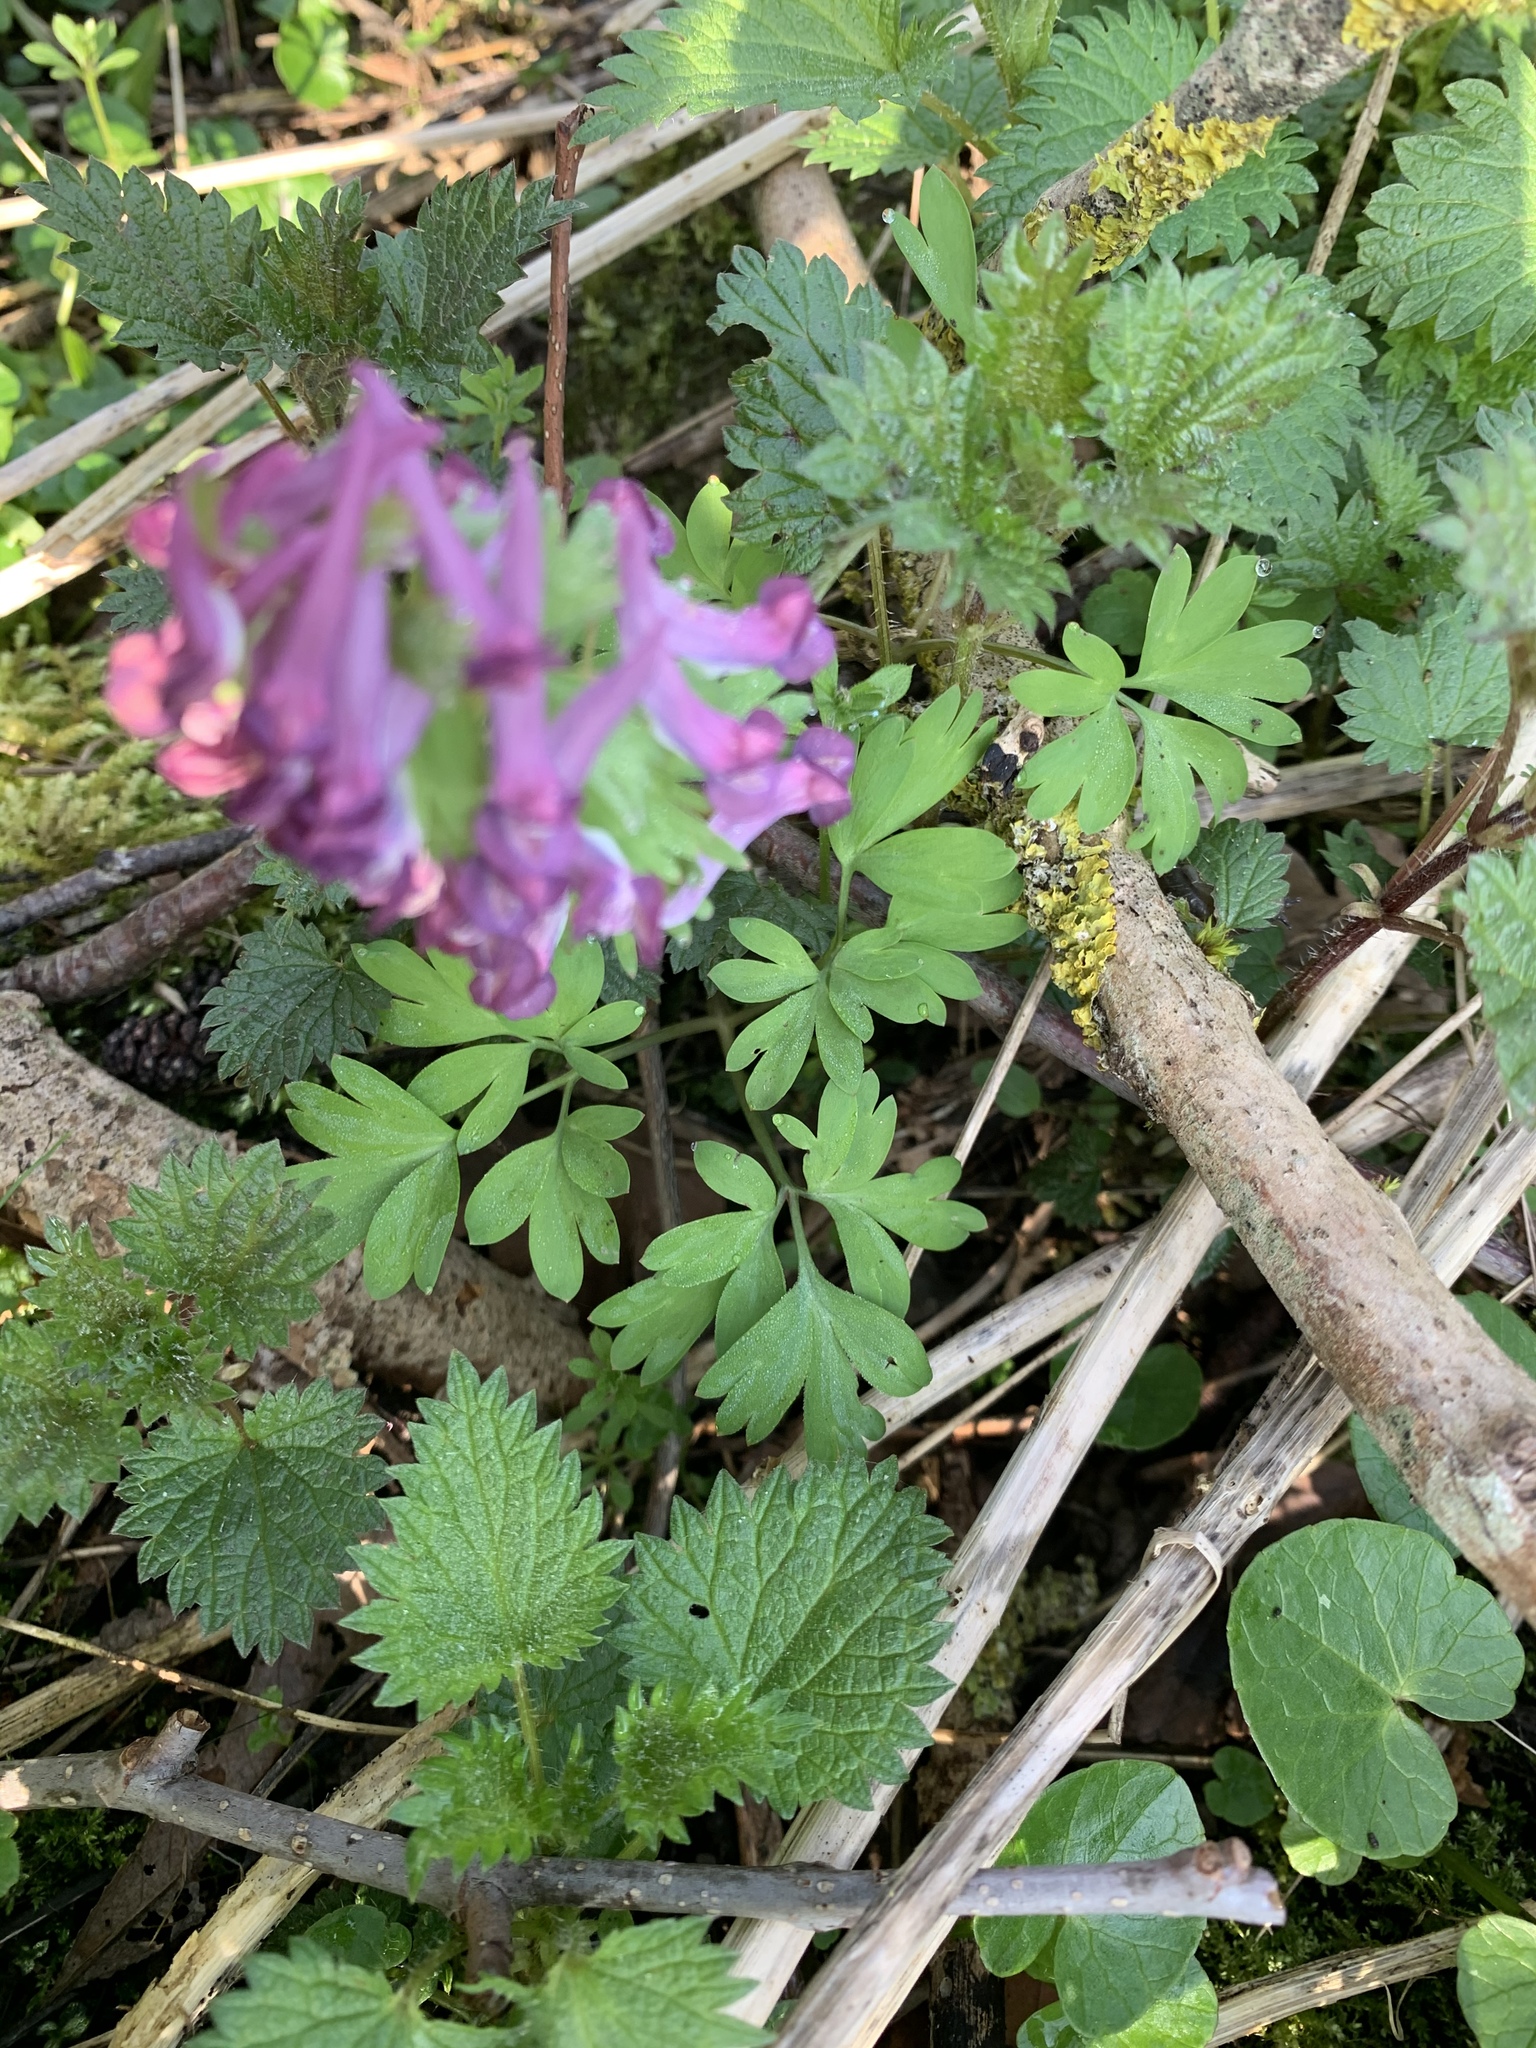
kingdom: Plantae
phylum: Tracheophyta
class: Magnoliopsida
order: Ranunculales
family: Papaveraceae
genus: Corydalis
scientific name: Corydalis solida
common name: Bird-in-a-bush
